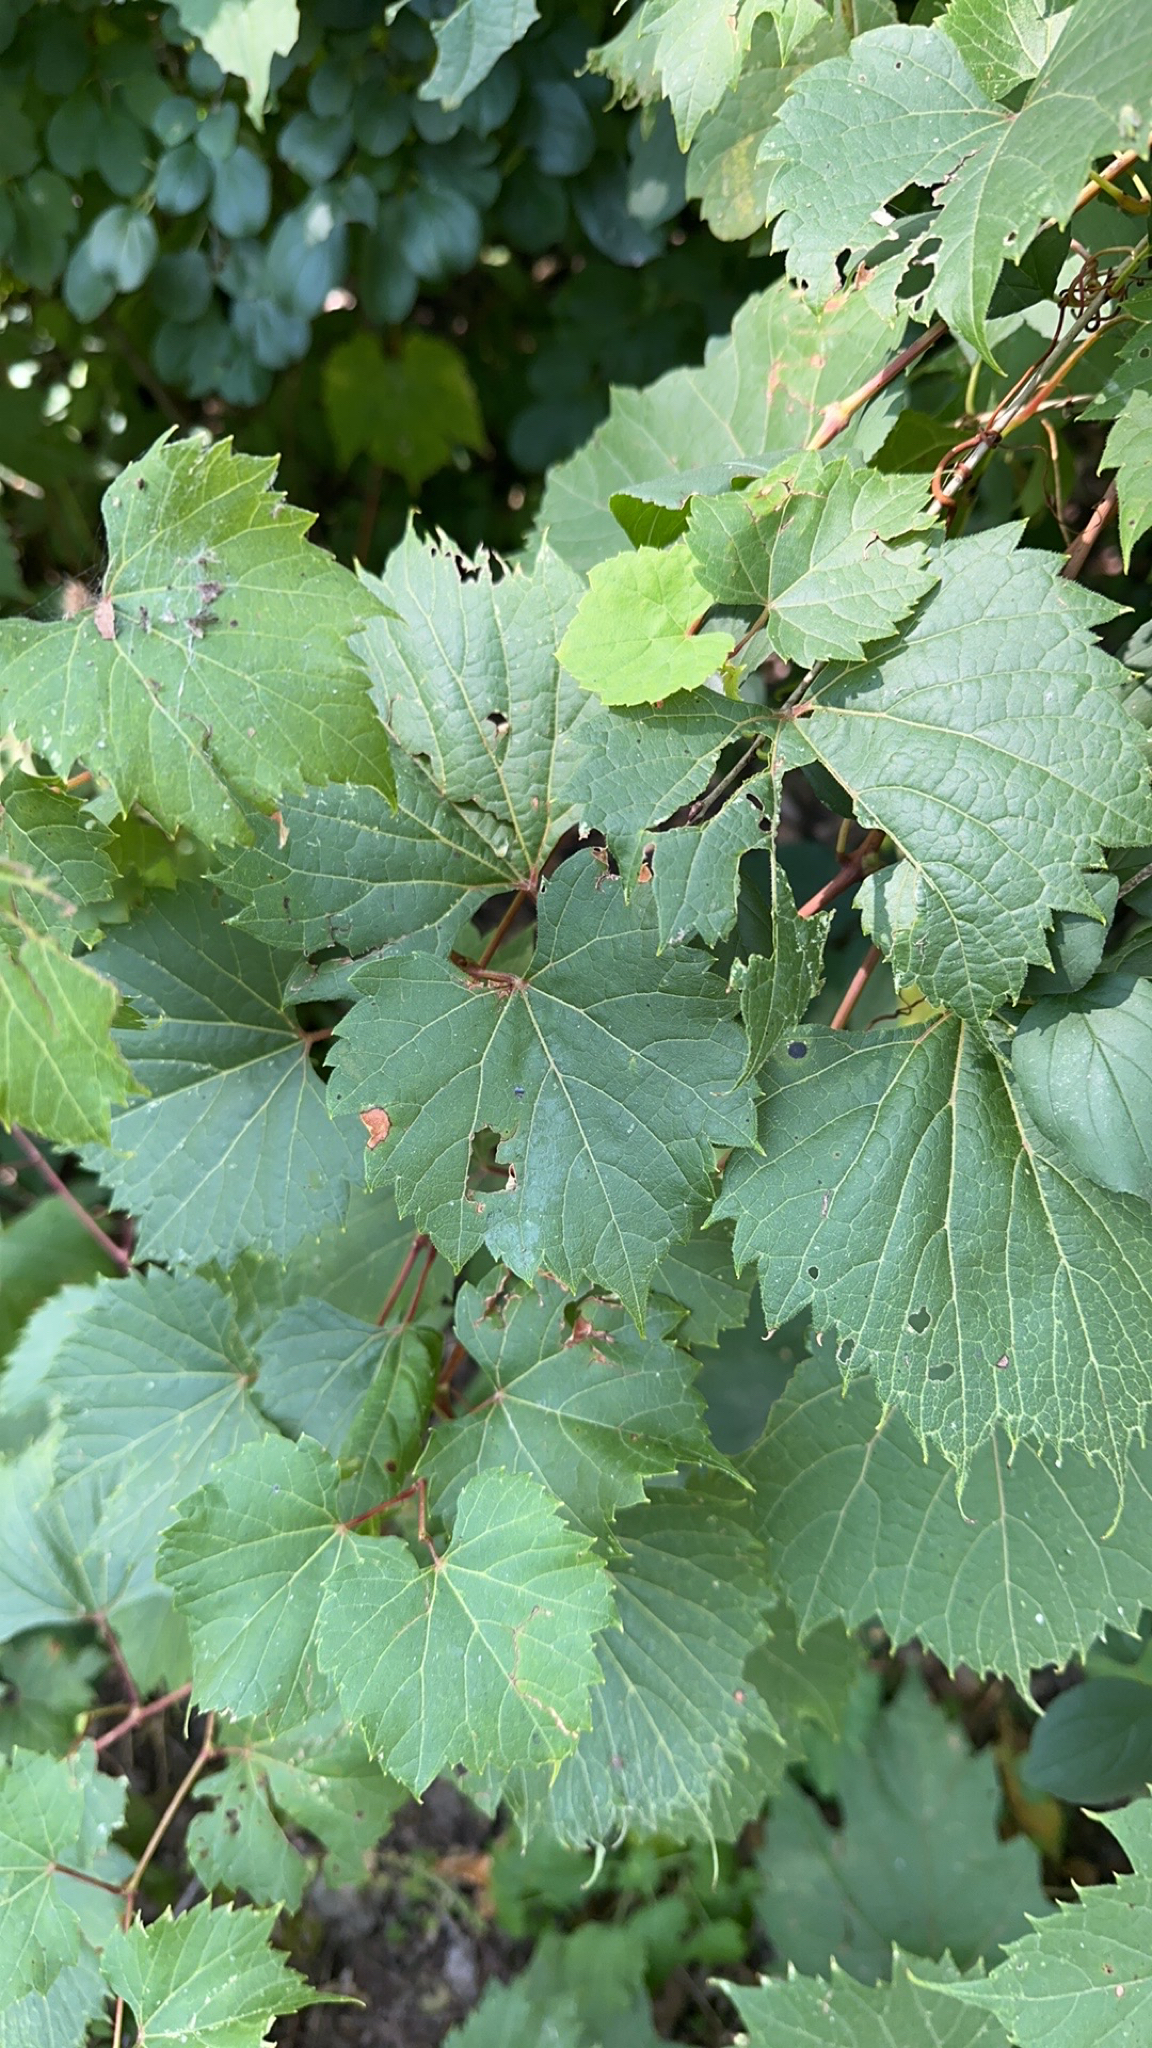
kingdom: Plantae
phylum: Tracheophyta
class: Magnoliopsida
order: Vitales
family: Vitaceae
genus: Vitis
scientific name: Vitis riparia
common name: Frost grape
